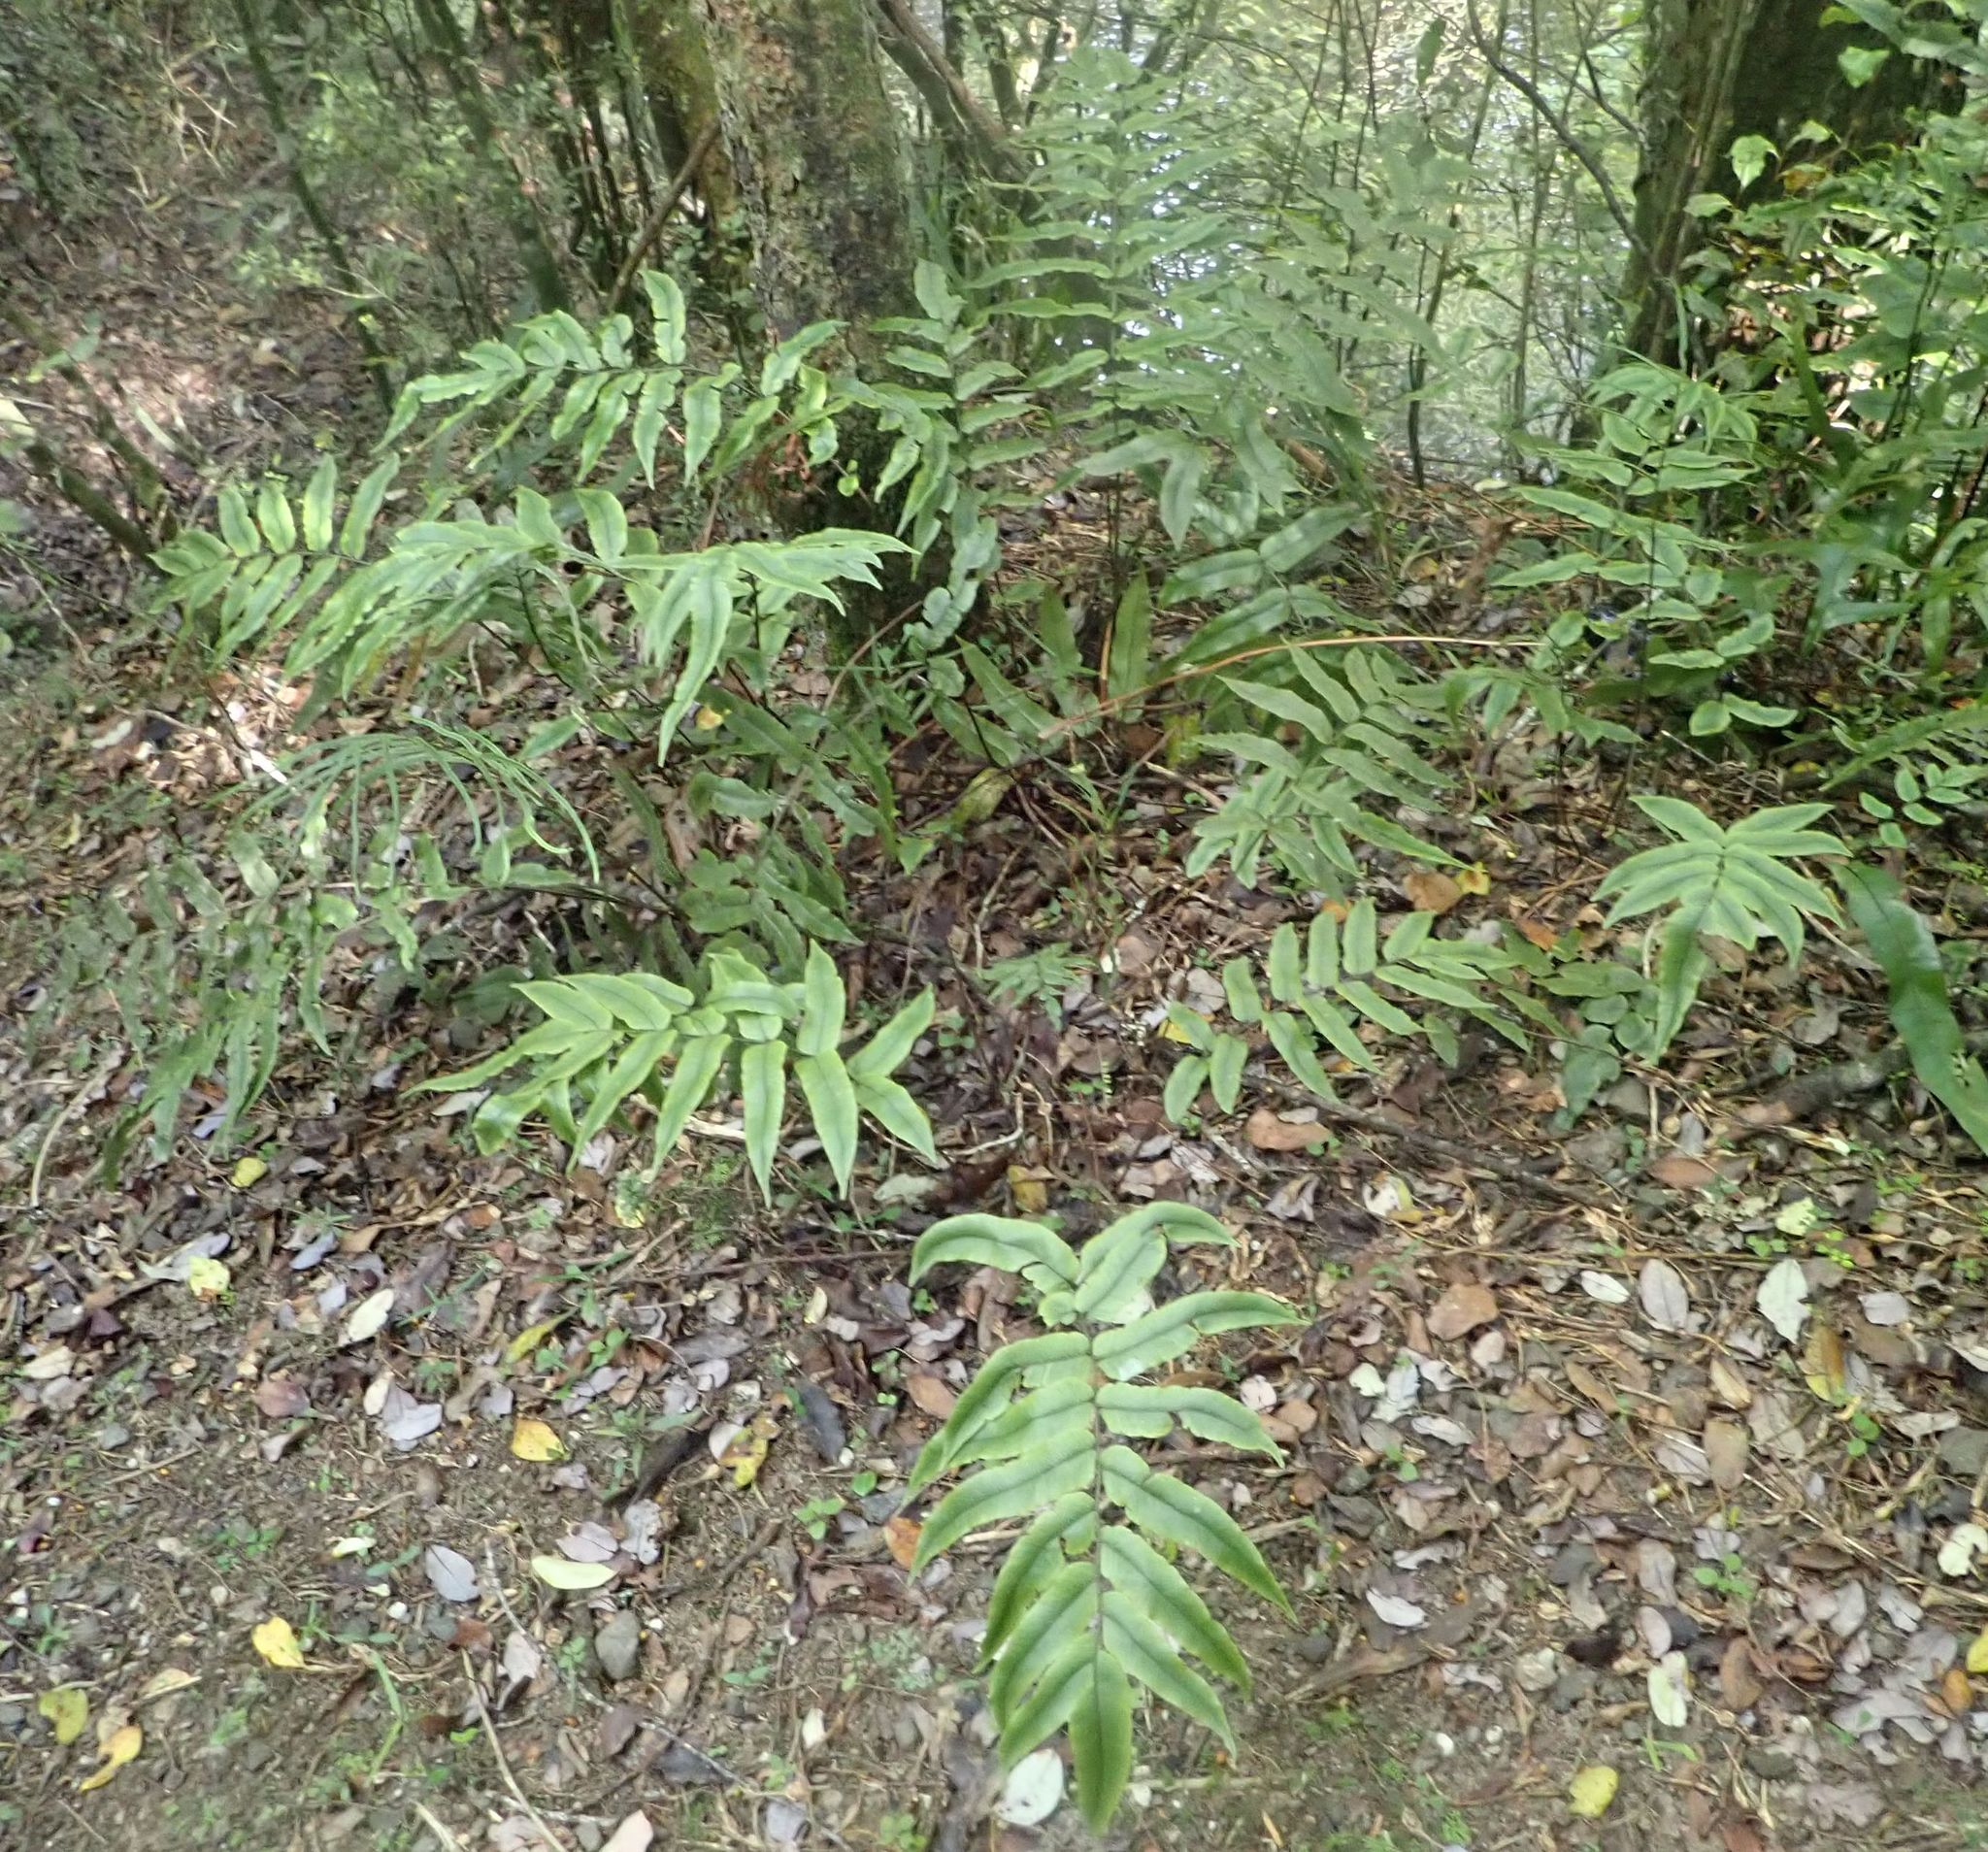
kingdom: Plantae
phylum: Tracheophyta
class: Polypodiopsida
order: Polypodiales
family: Blechnaceae
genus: Parablechnum
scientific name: Parablechnum procerum
